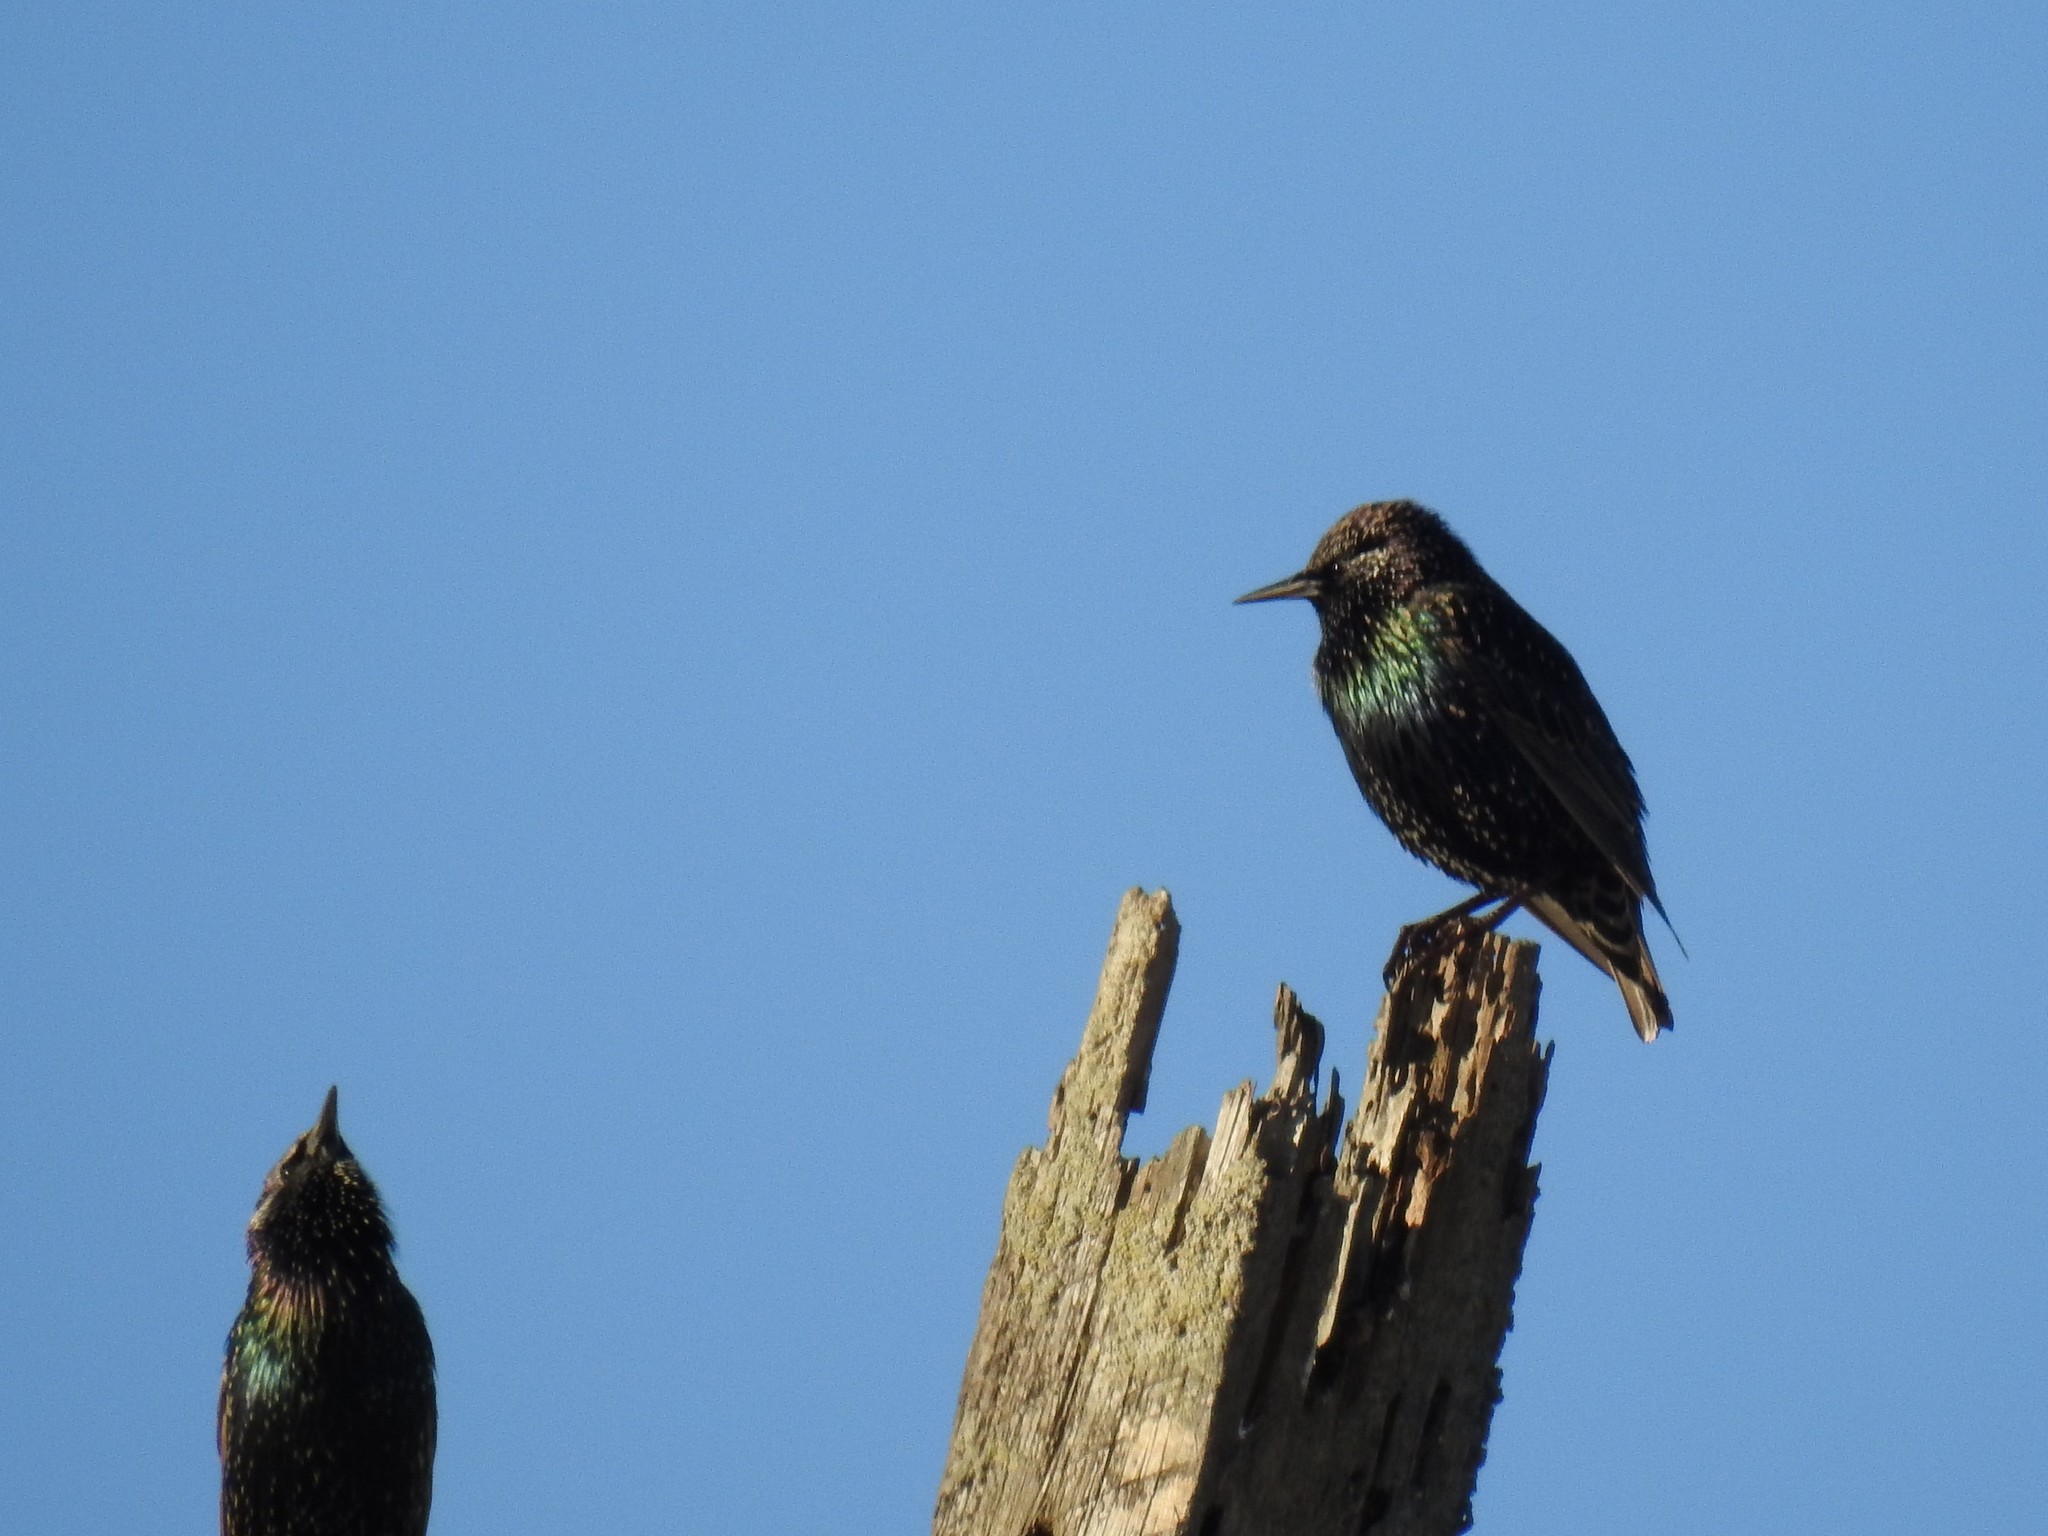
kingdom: Animalia
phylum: Chordata
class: Aves
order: Passeriformes
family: Sturnidae
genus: Sturnus
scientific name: Sturnus vulgaris
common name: Common starling
